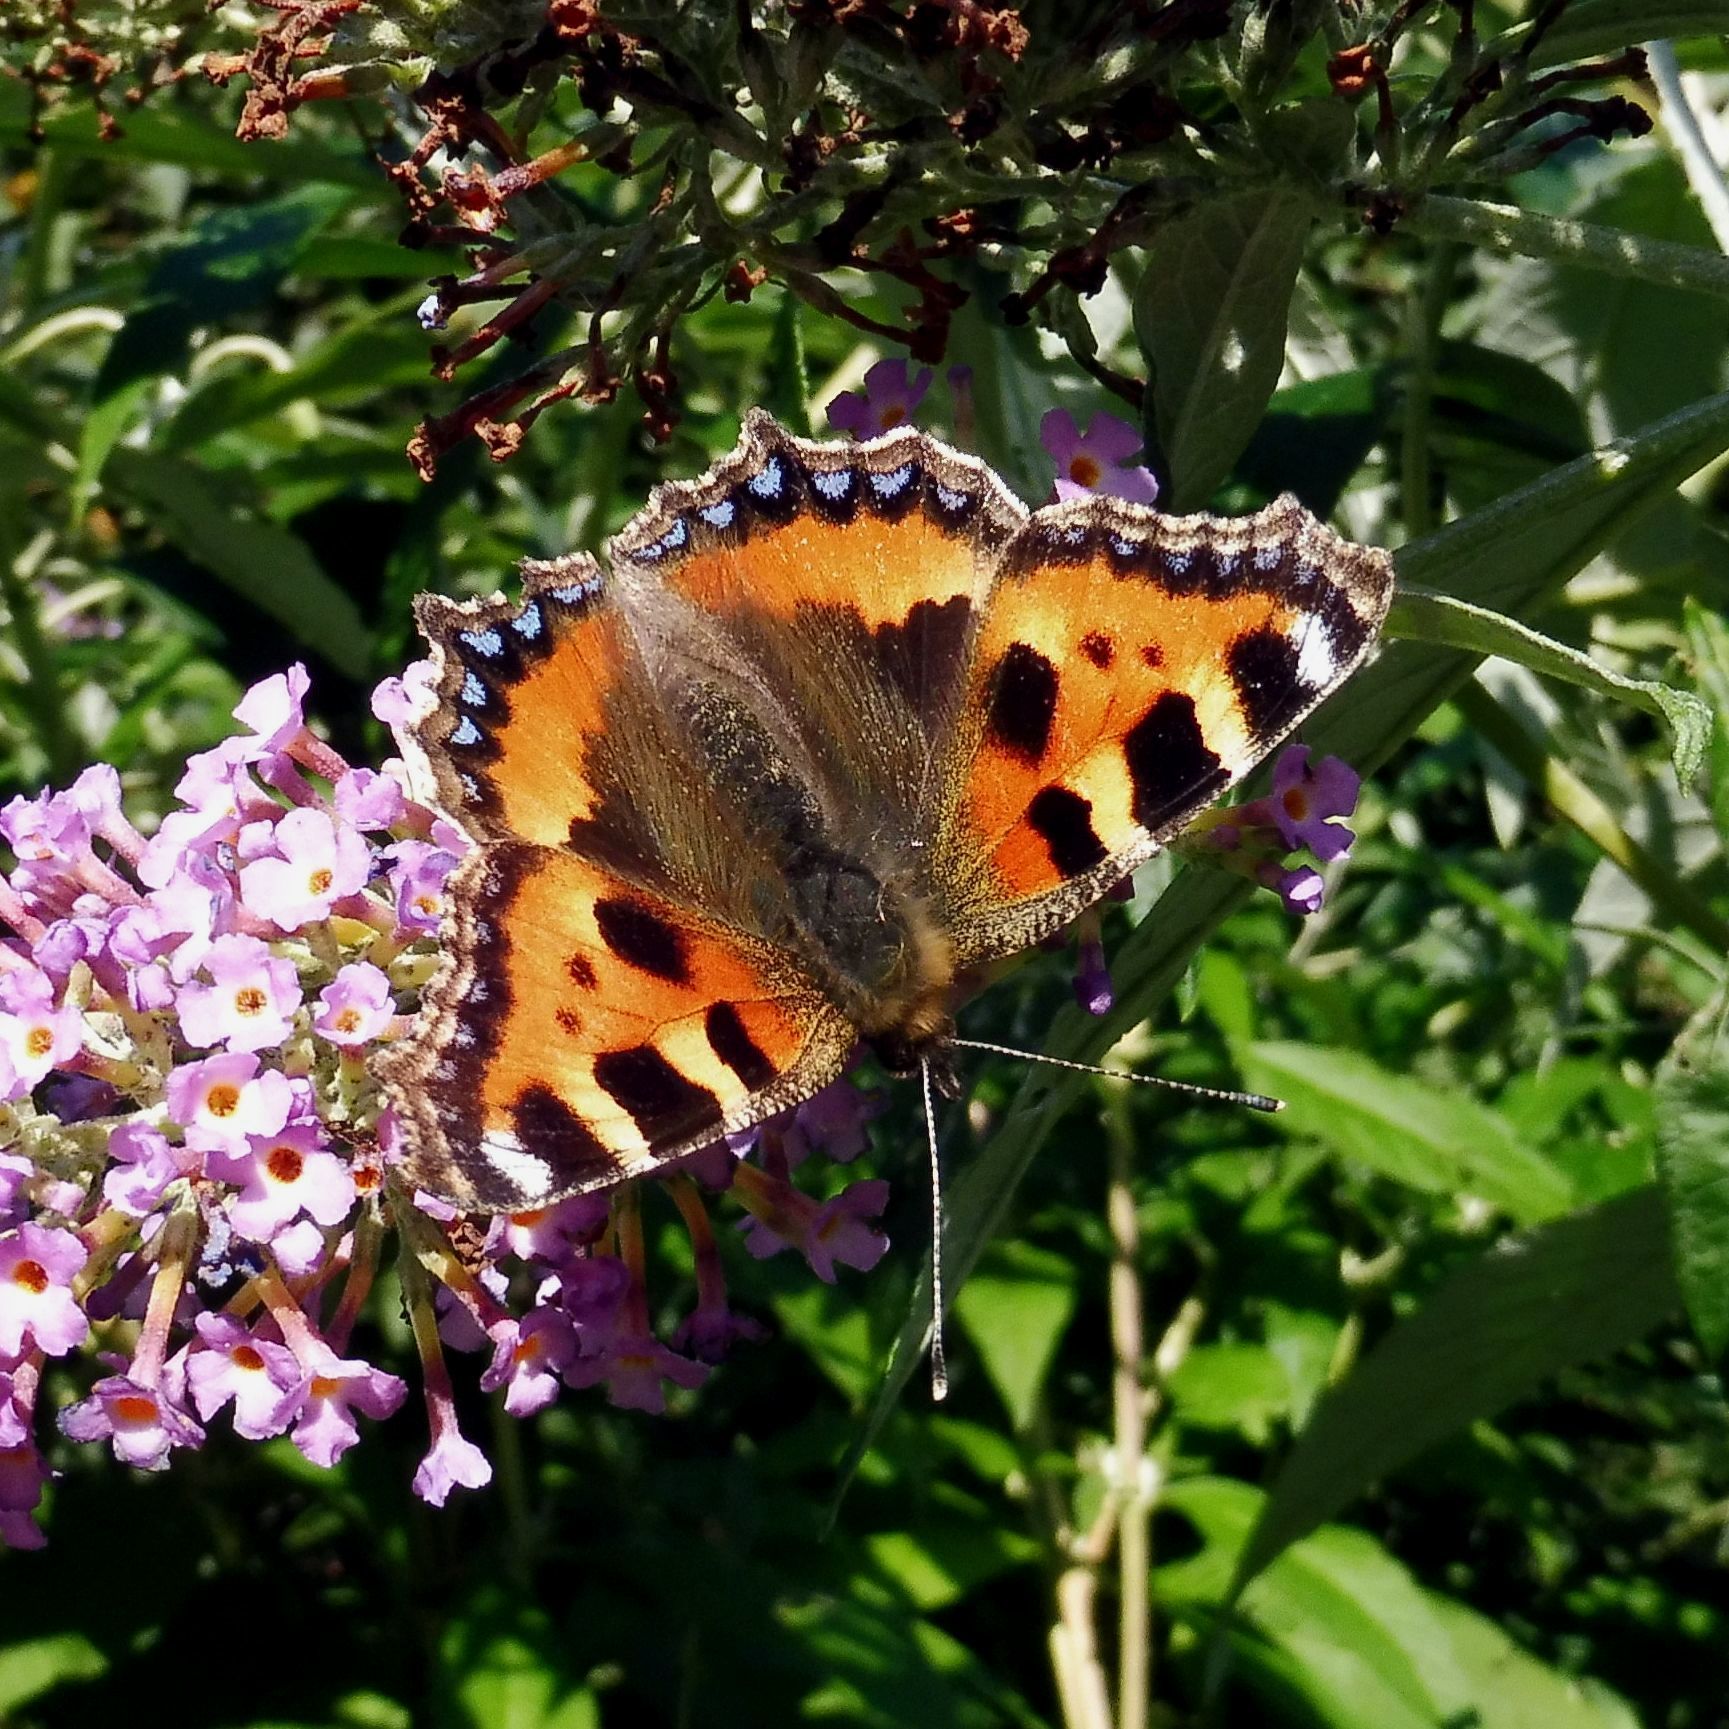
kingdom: Animalia
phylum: Arthropoda
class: Insecta
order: Lepidoptera
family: Nymphalidae
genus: Aglais
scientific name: Aglais urticae
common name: Small tortoiseshell
